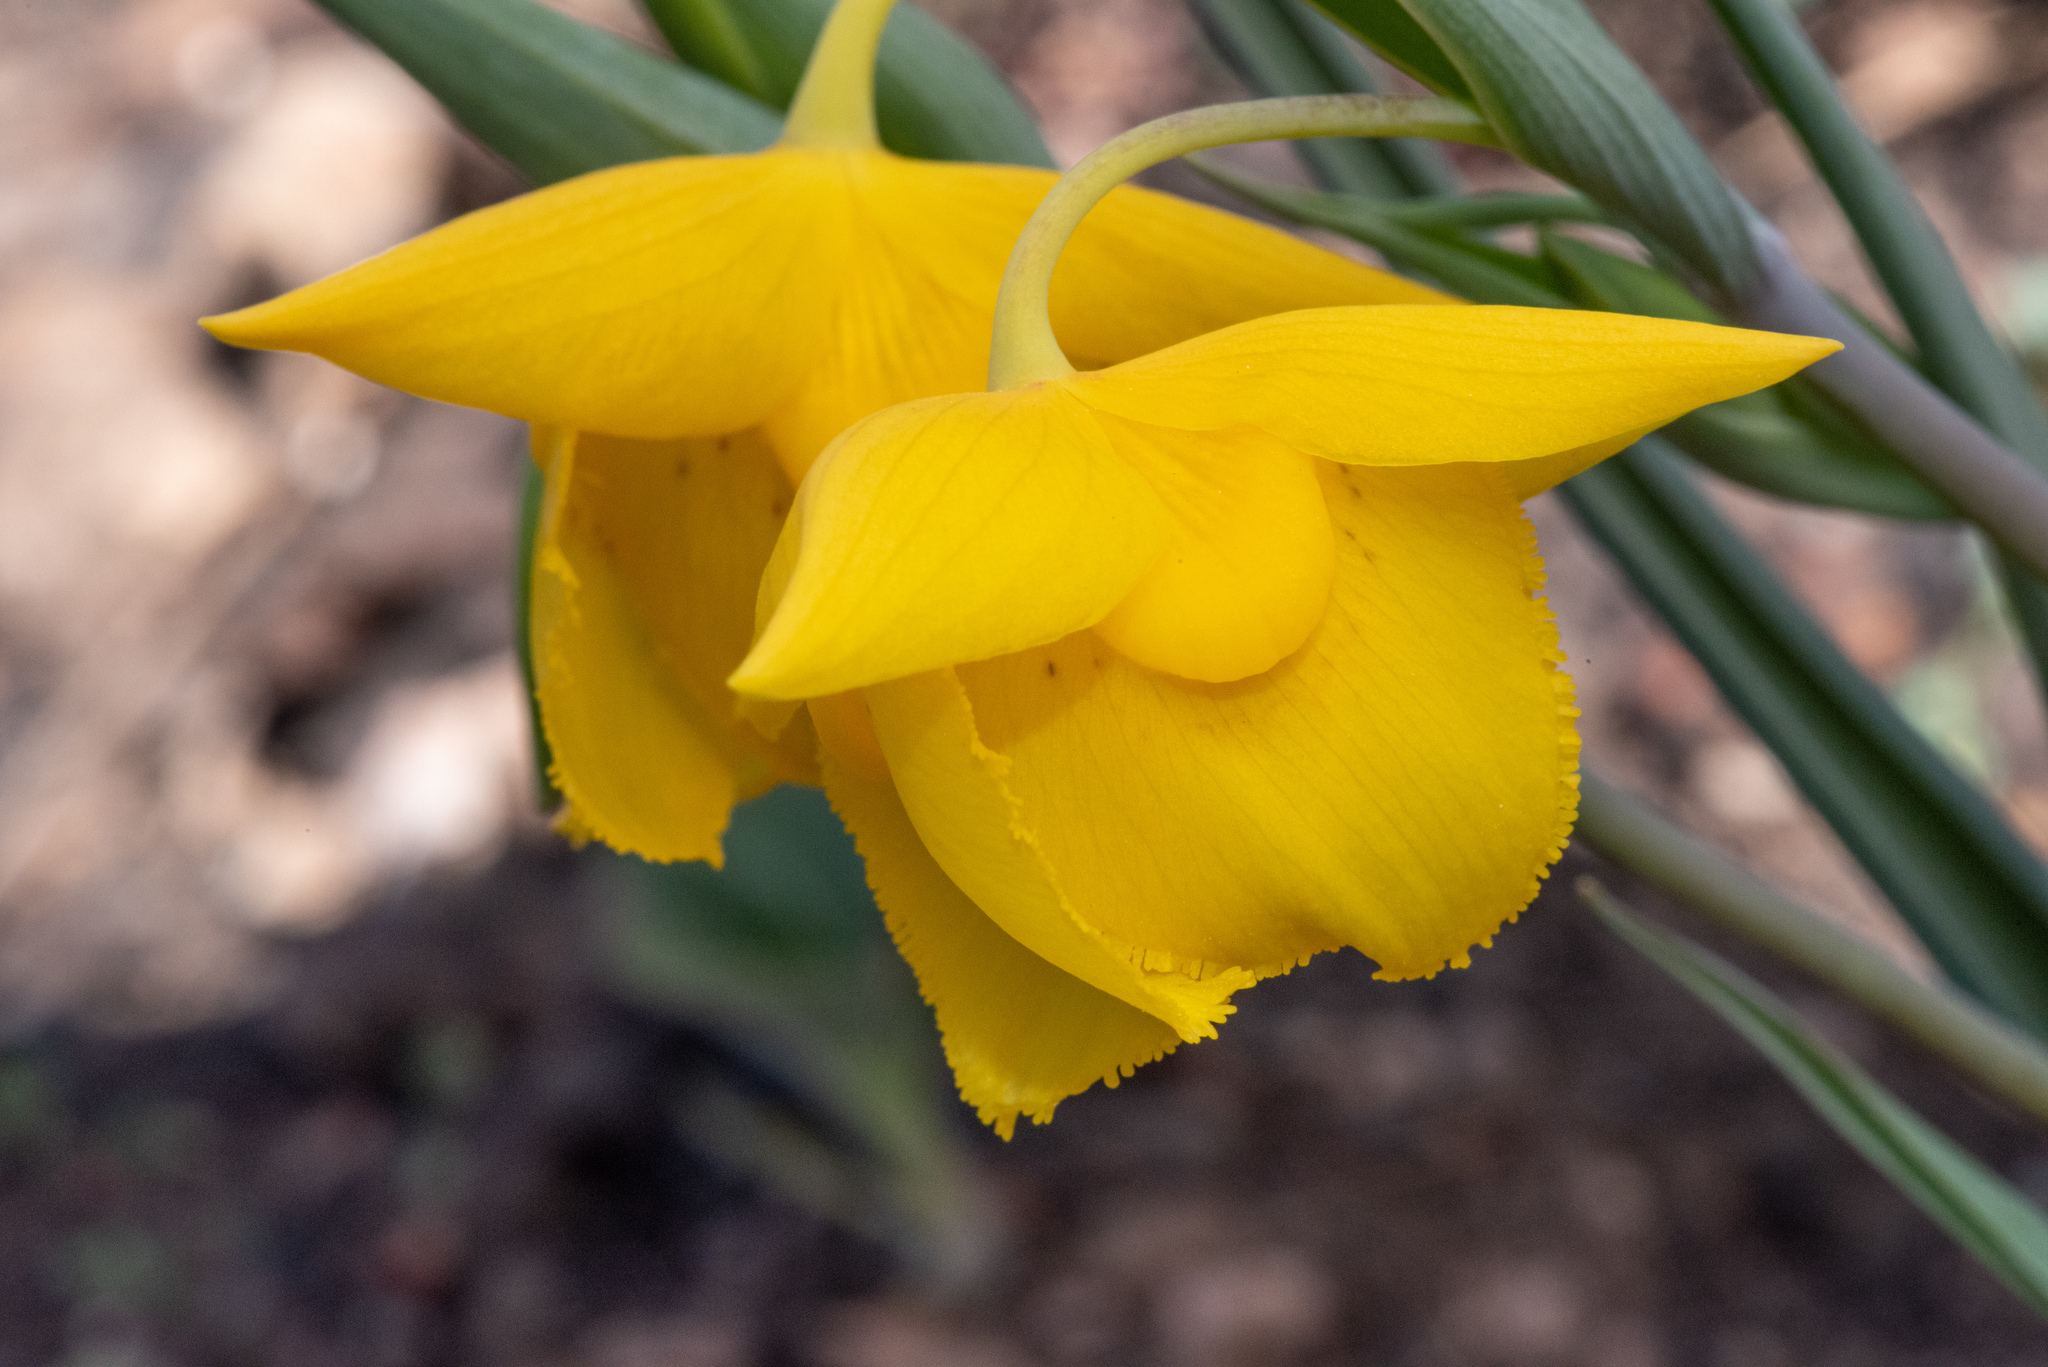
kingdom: Plantae
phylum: Tracheophyta
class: Liliopsida
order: Liliales
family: Liliaceae
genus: Calochortus
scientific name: Calochortus amabilis
